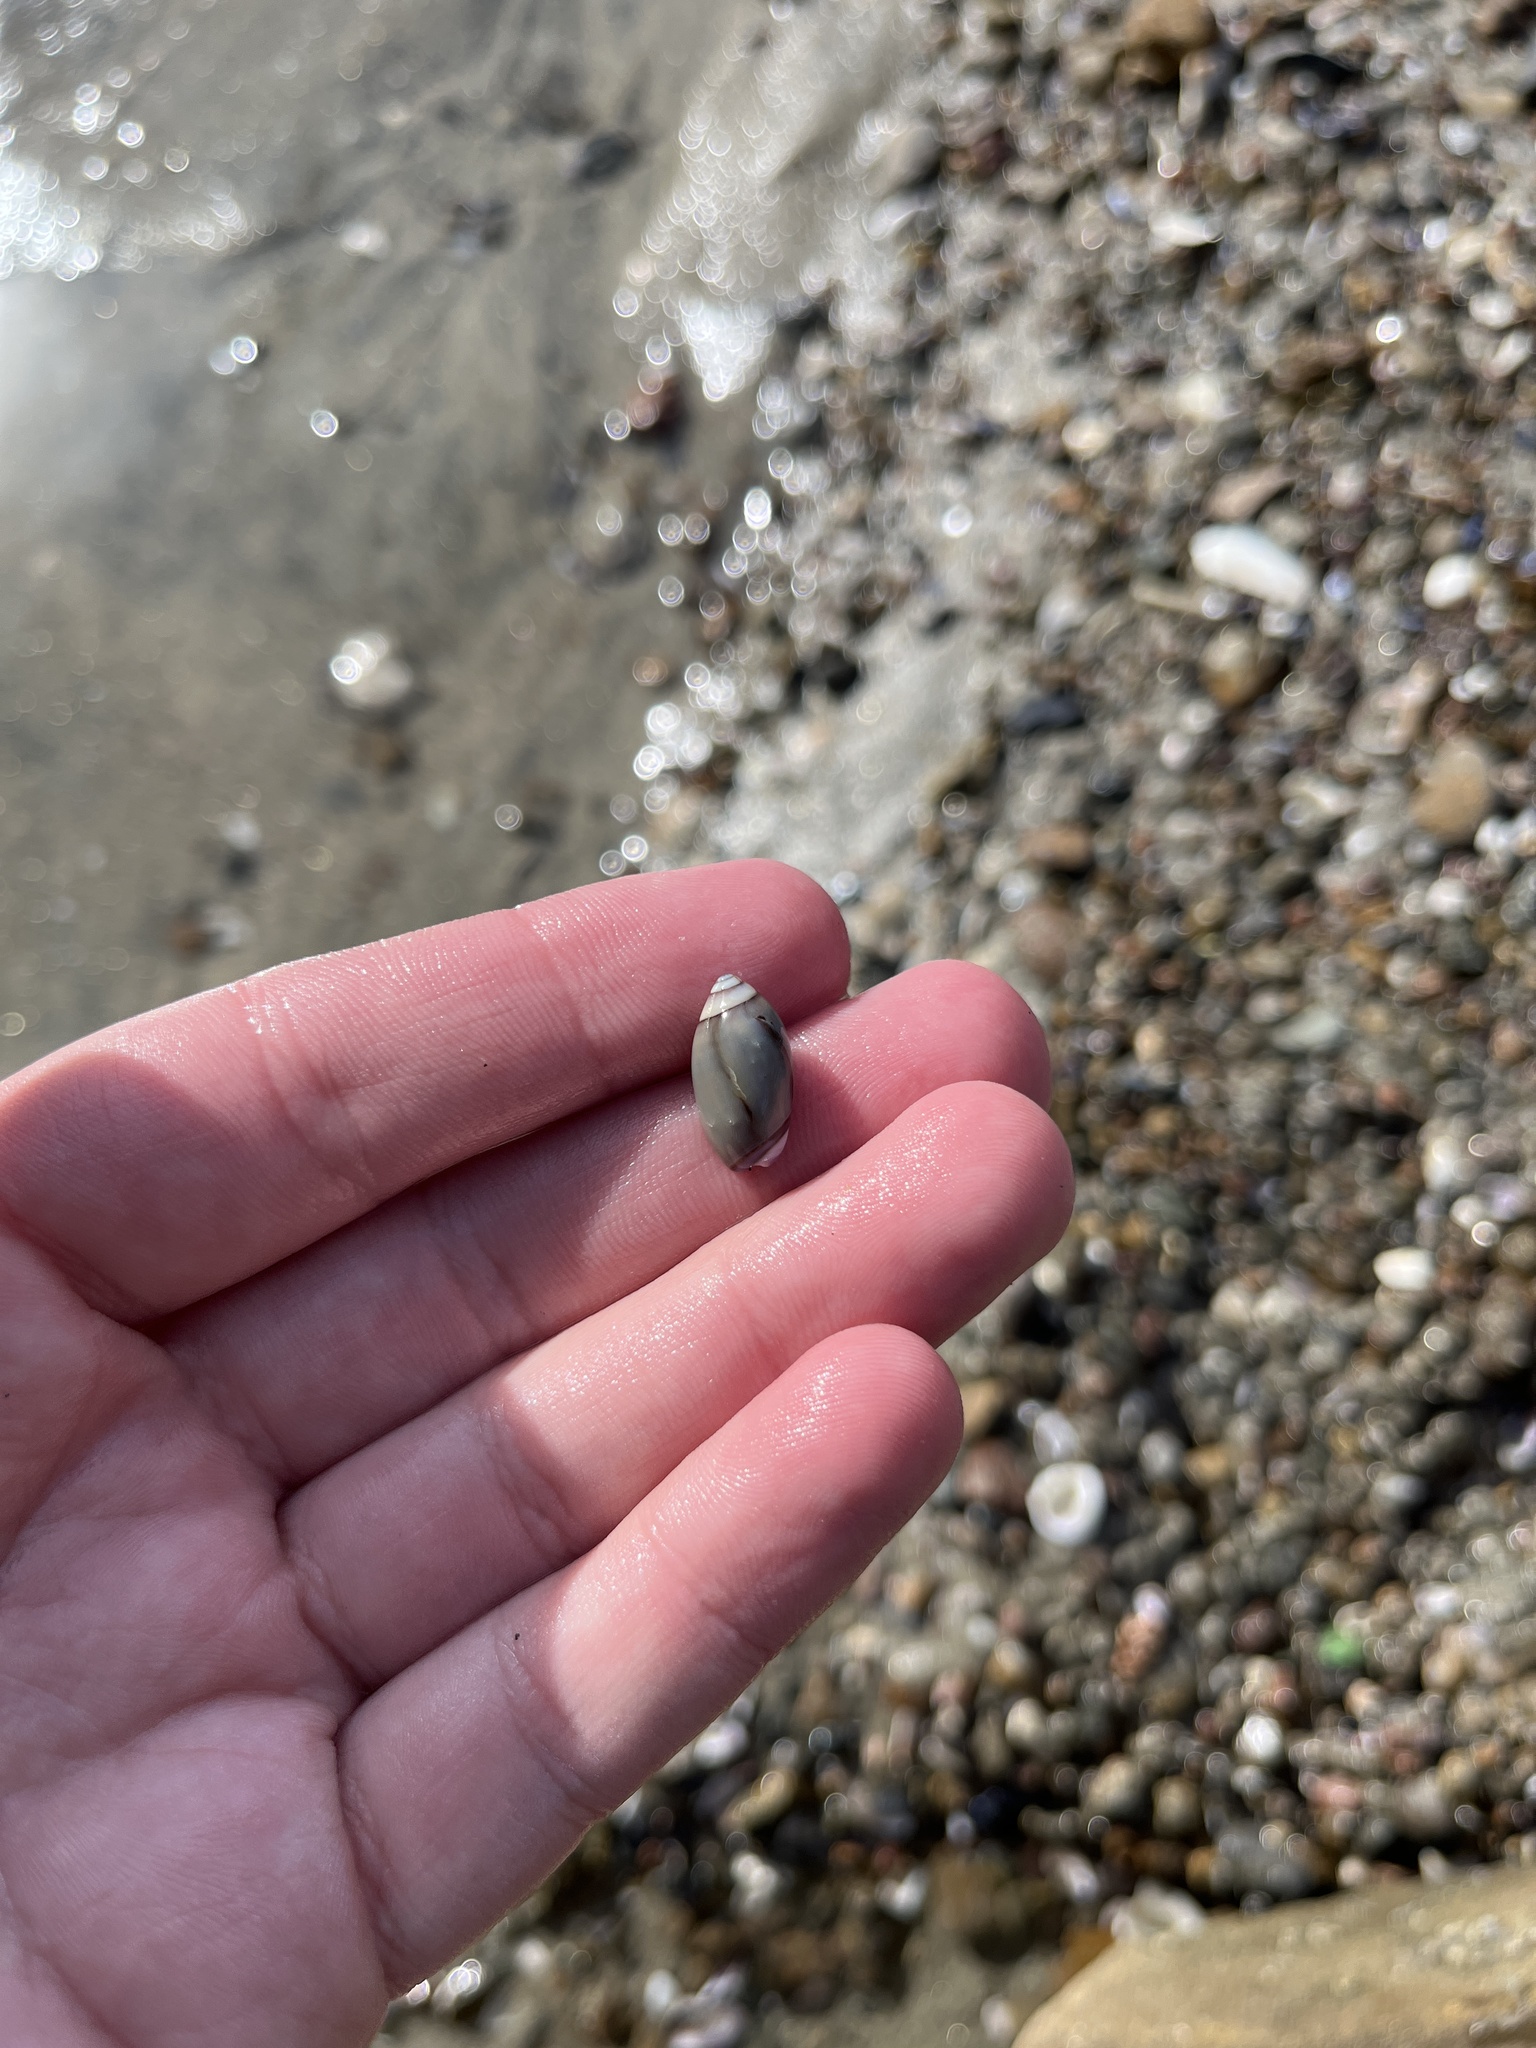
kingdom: Animalia
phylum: Mollusca
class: Gastropoda
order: Neogastropoda
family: Olividae
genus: Callianax
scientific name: Callianax biplicata
